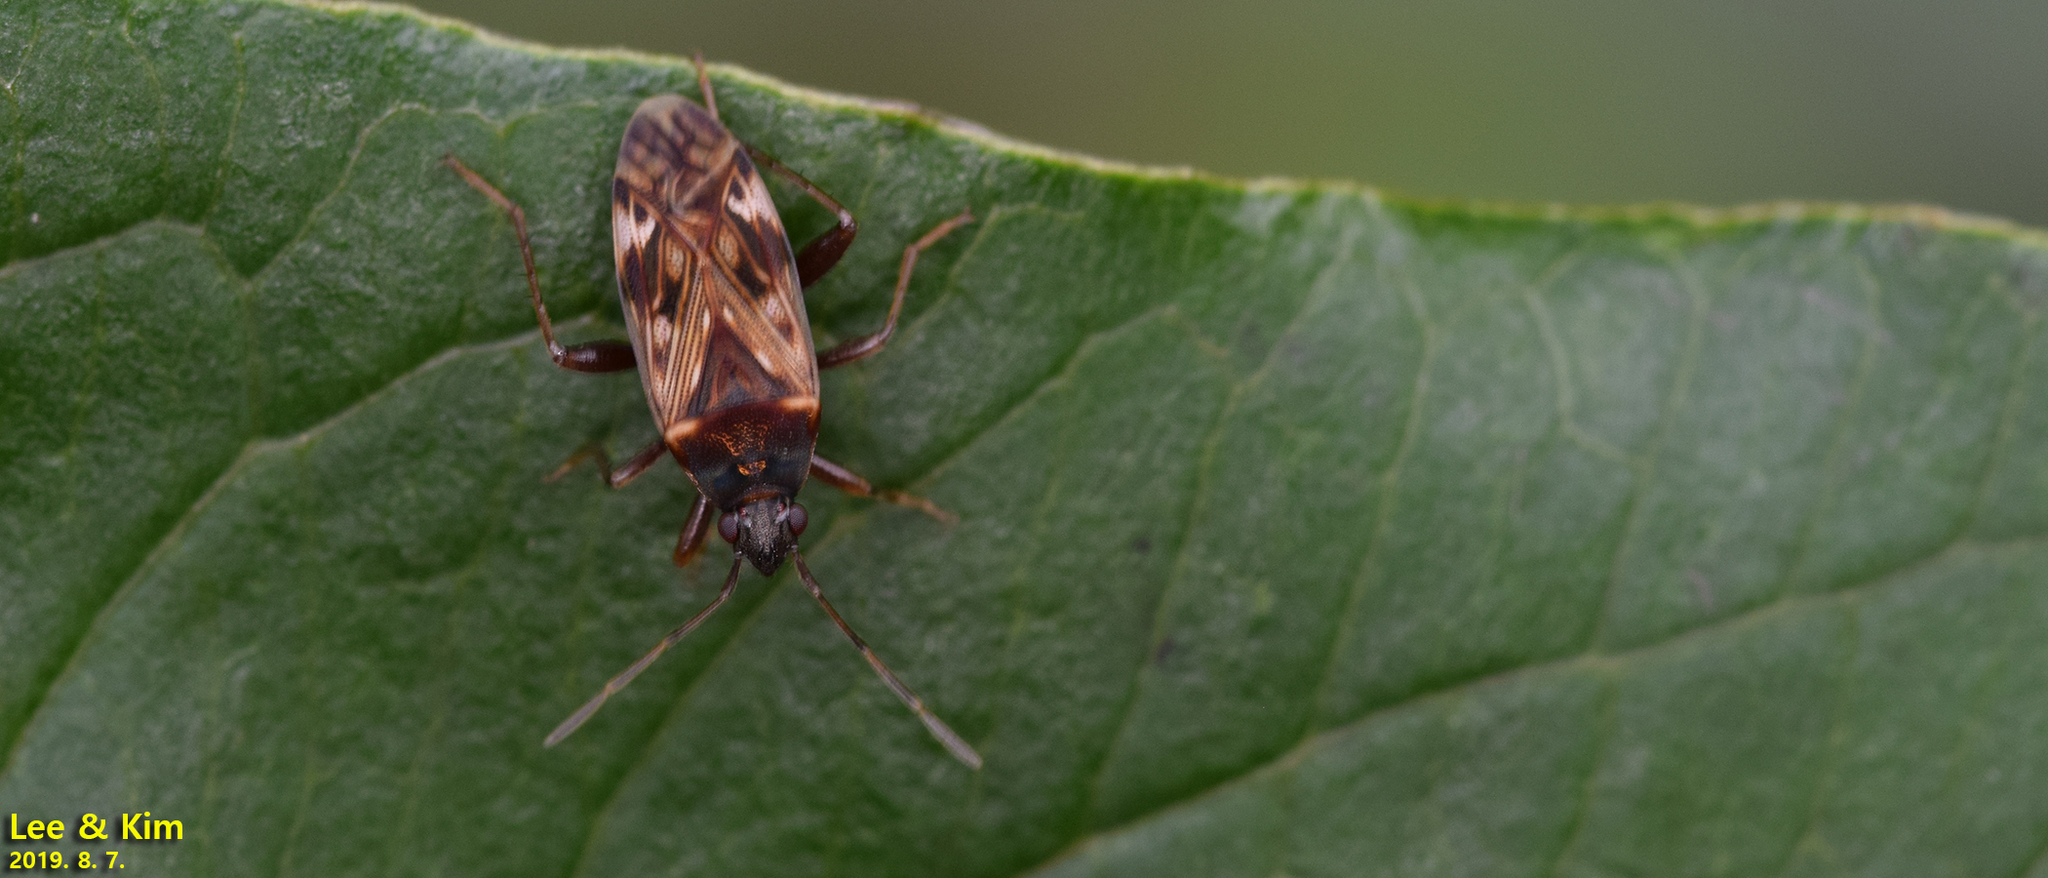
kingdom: Animalia
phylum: Arthropoda
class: Insecta
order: Hemiptera
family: Rhyparochromidae
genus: Neolethaeus
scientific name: Neolethaeus dallasi
